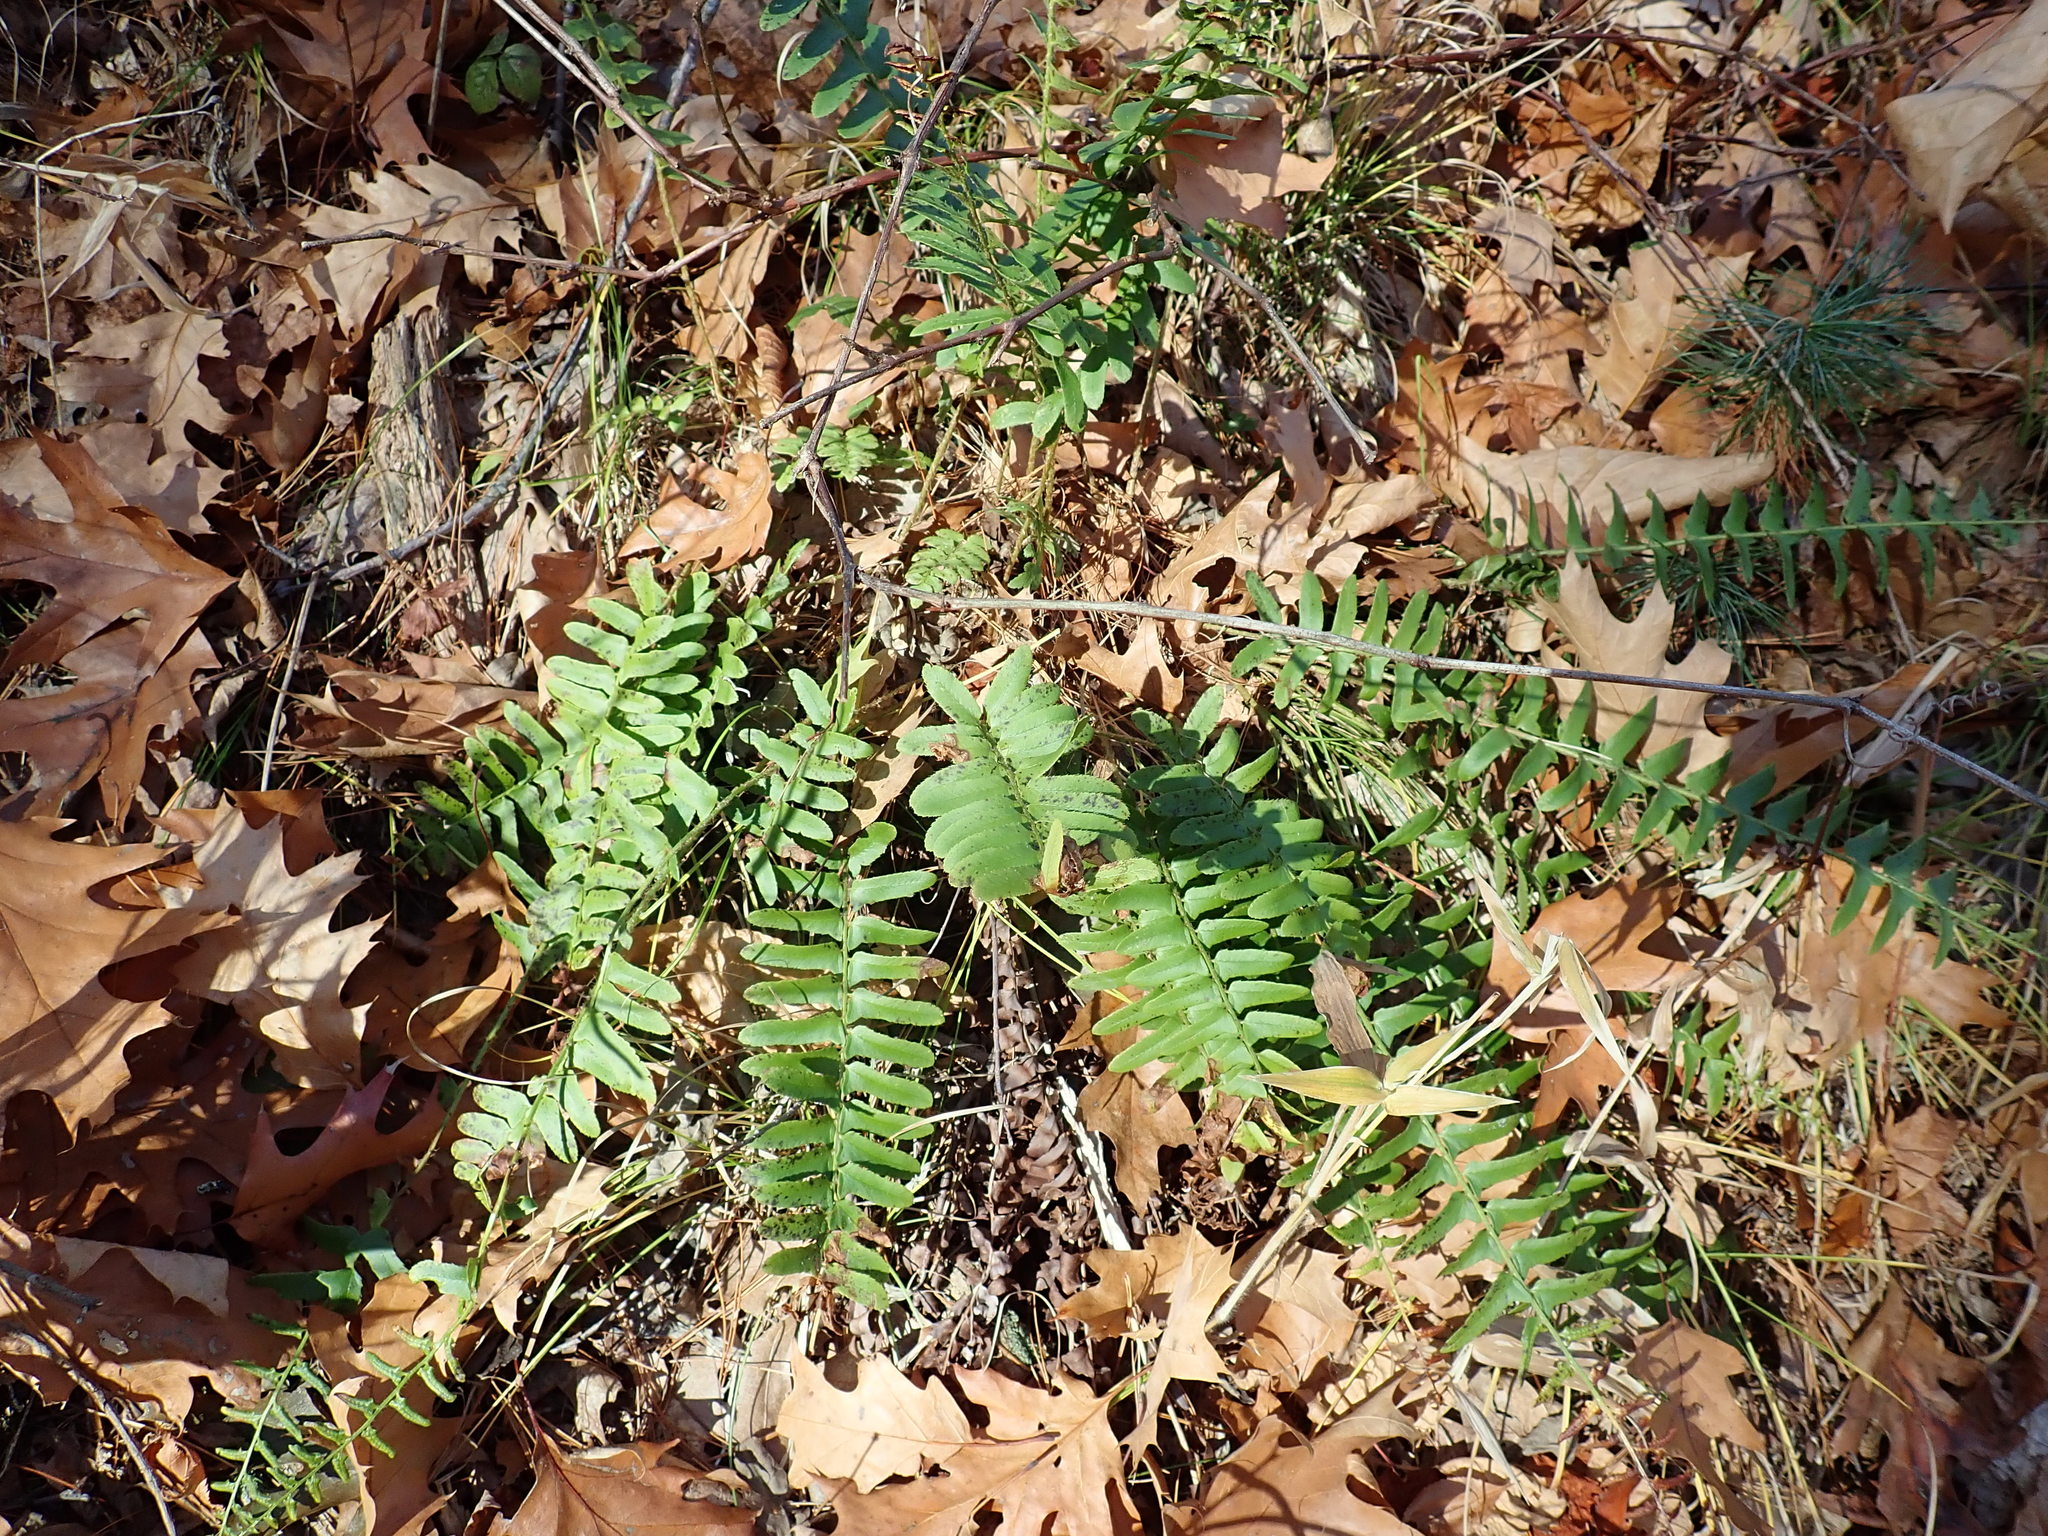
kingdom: Plantae
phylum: Tracheophyta
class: Polypodiopsida
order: Polypodiales
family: Dryopteridaceae
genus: Polystichum
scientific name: Polystichum acrostichoides
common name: Christmas fern
